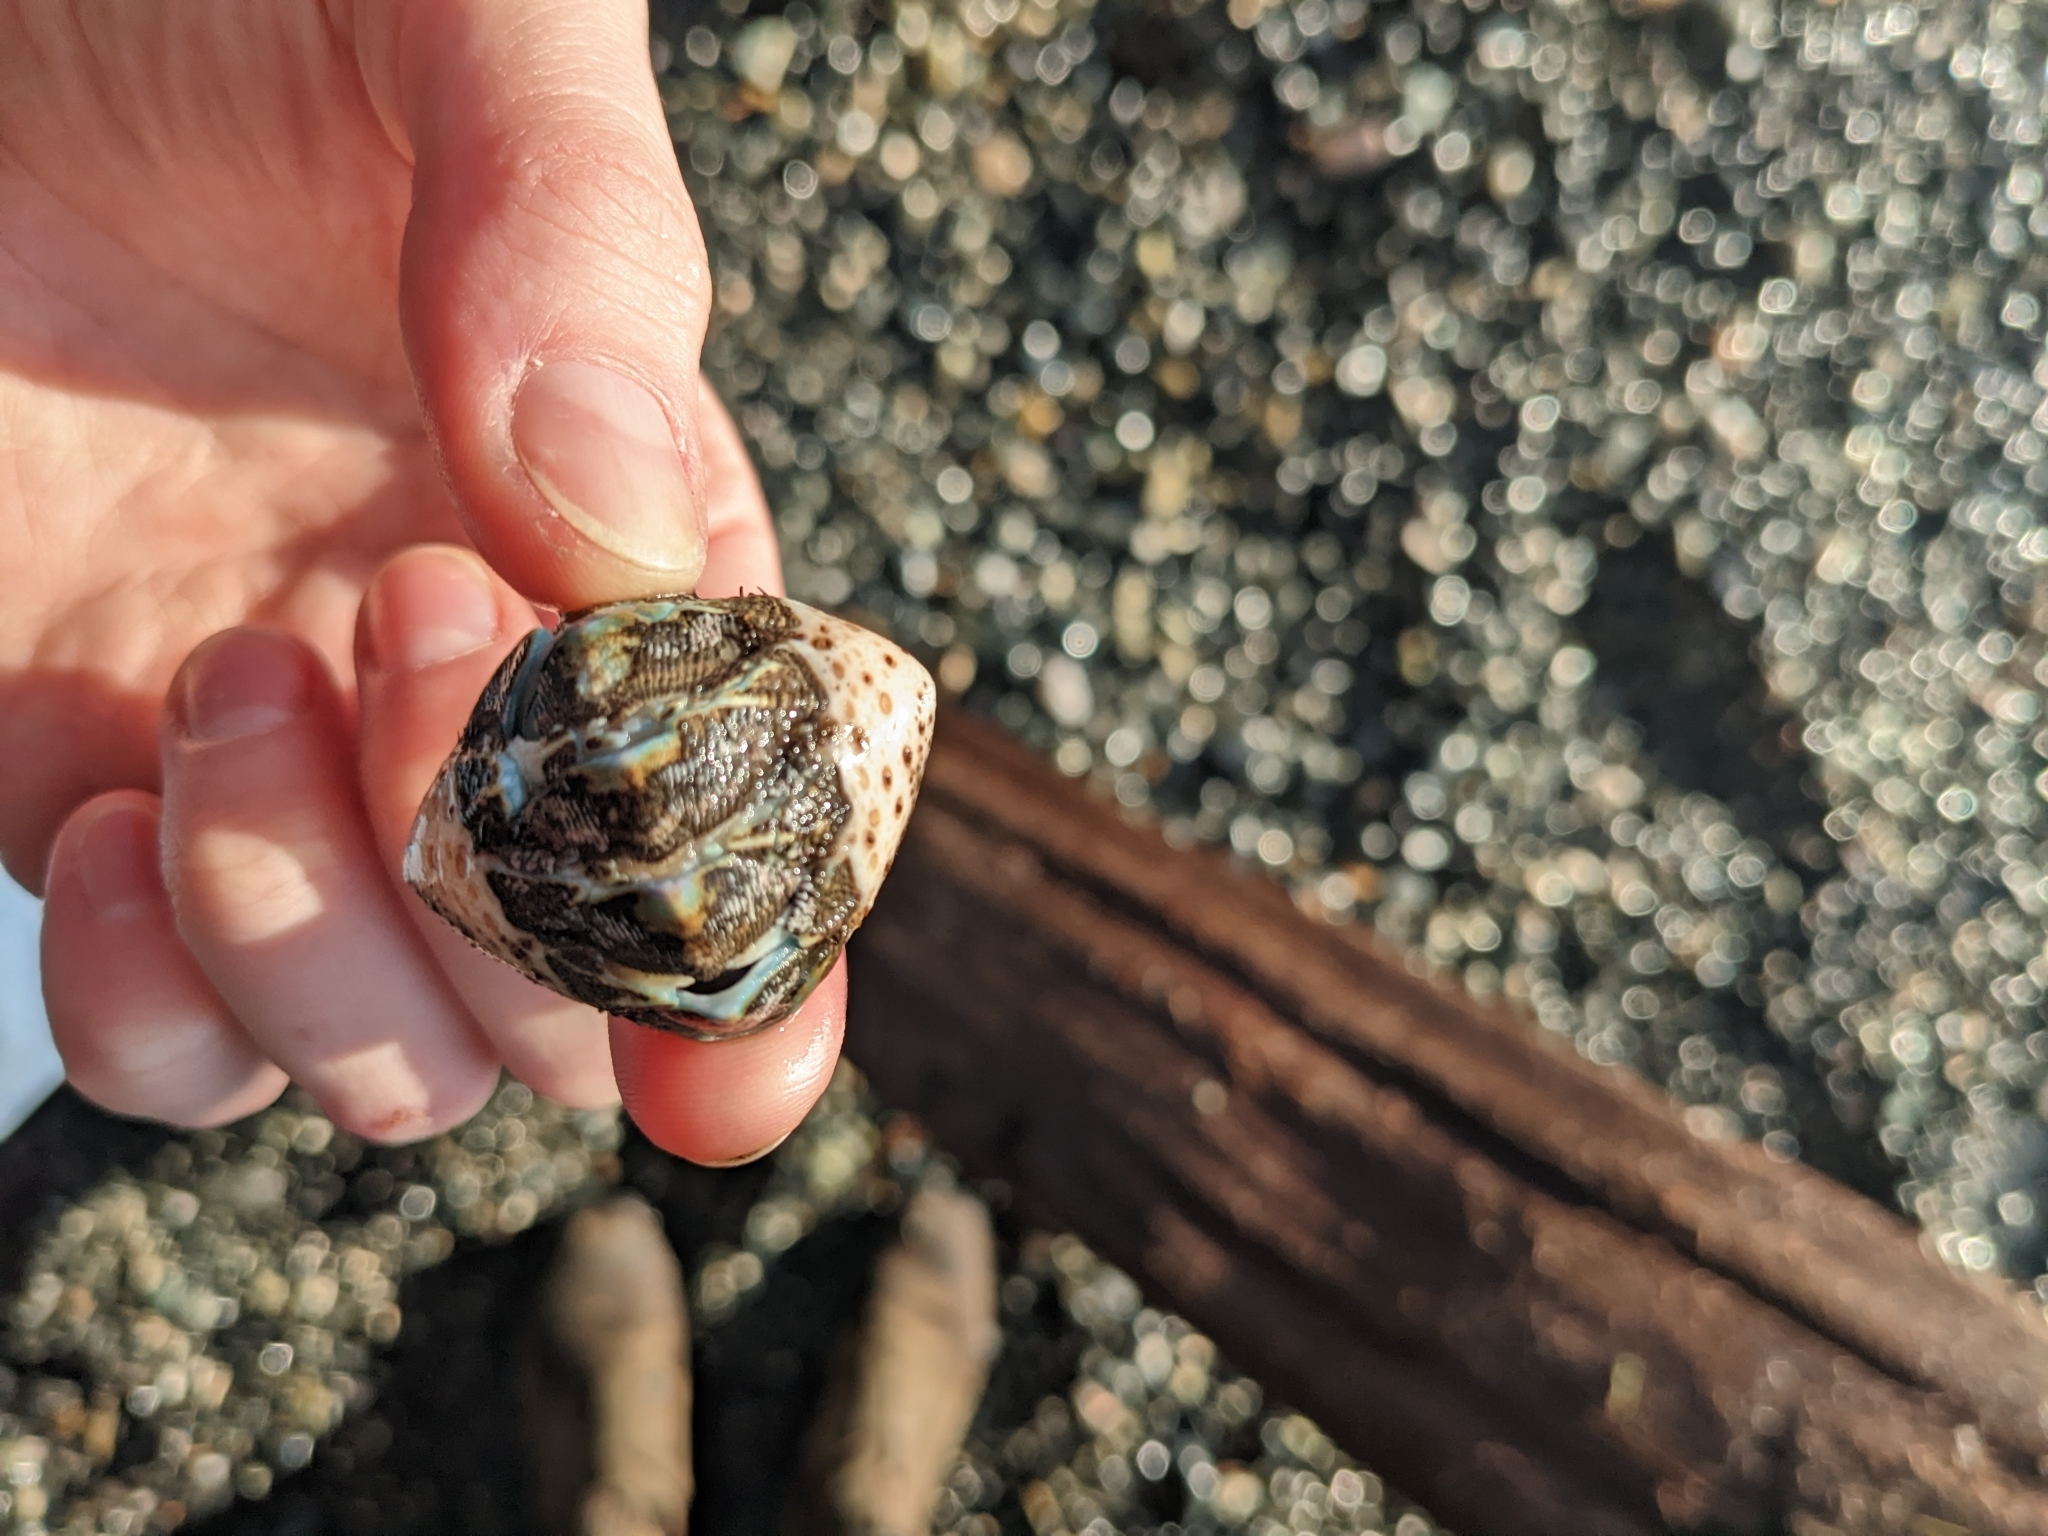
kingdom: Animalia
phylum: Mollusca
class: Polyplacophora
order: Chitonida
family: Mopaliidae
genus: Mopalia
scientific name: Mopalia muscosa
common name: Mossy chiton
